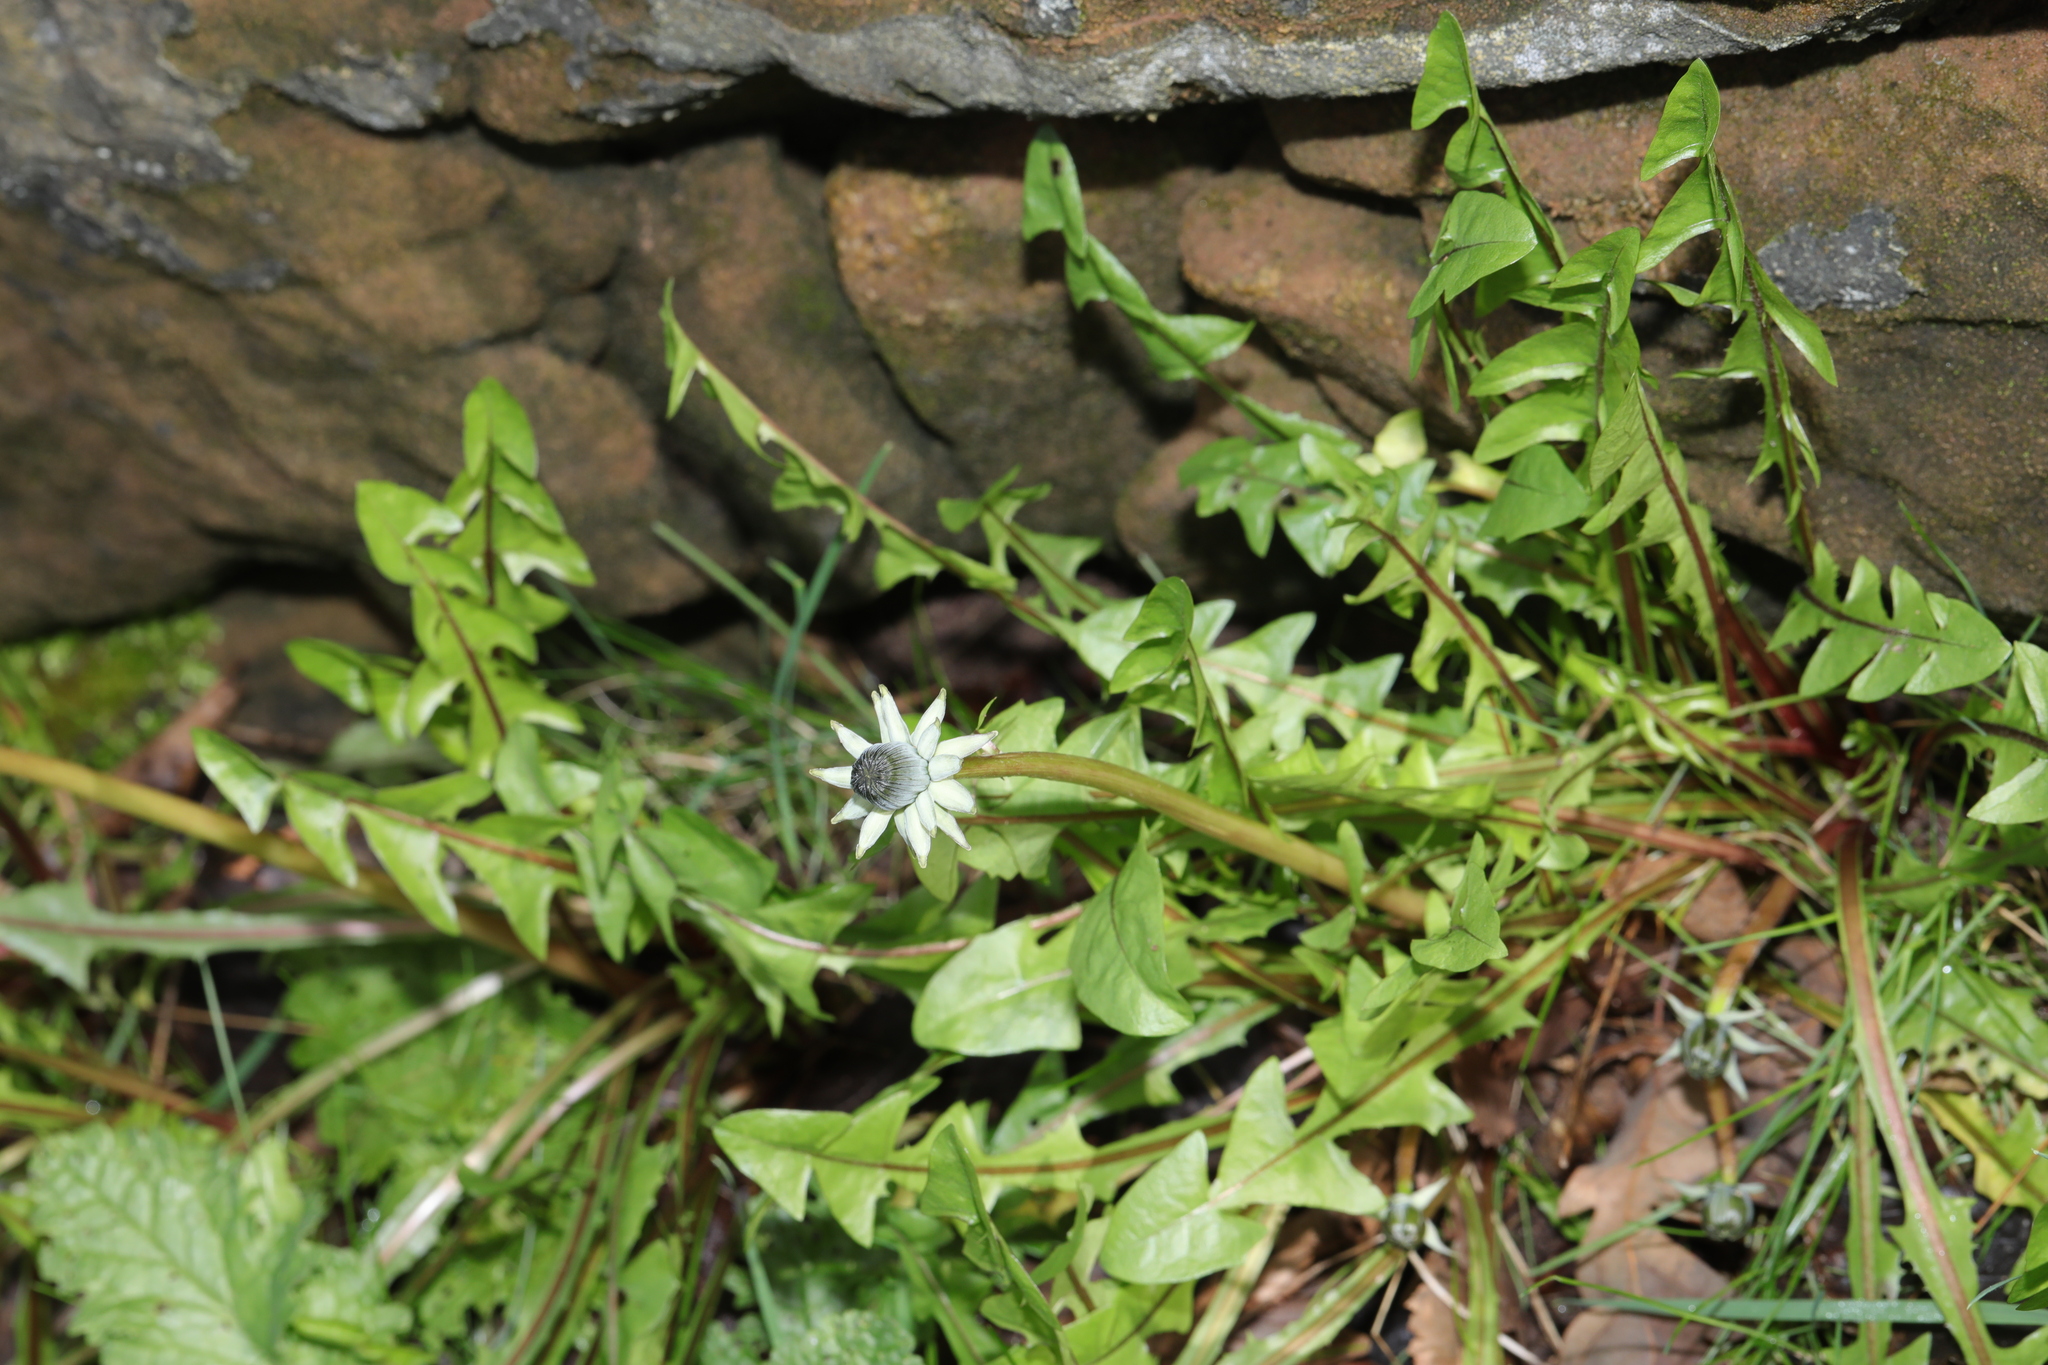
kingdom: Plantae
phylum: Tracheophyta
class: Magnoliopsida
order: Asterales
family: Asteraceae
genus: Taraxacum
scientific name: Taraxacum officinale
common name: Common dandelion
